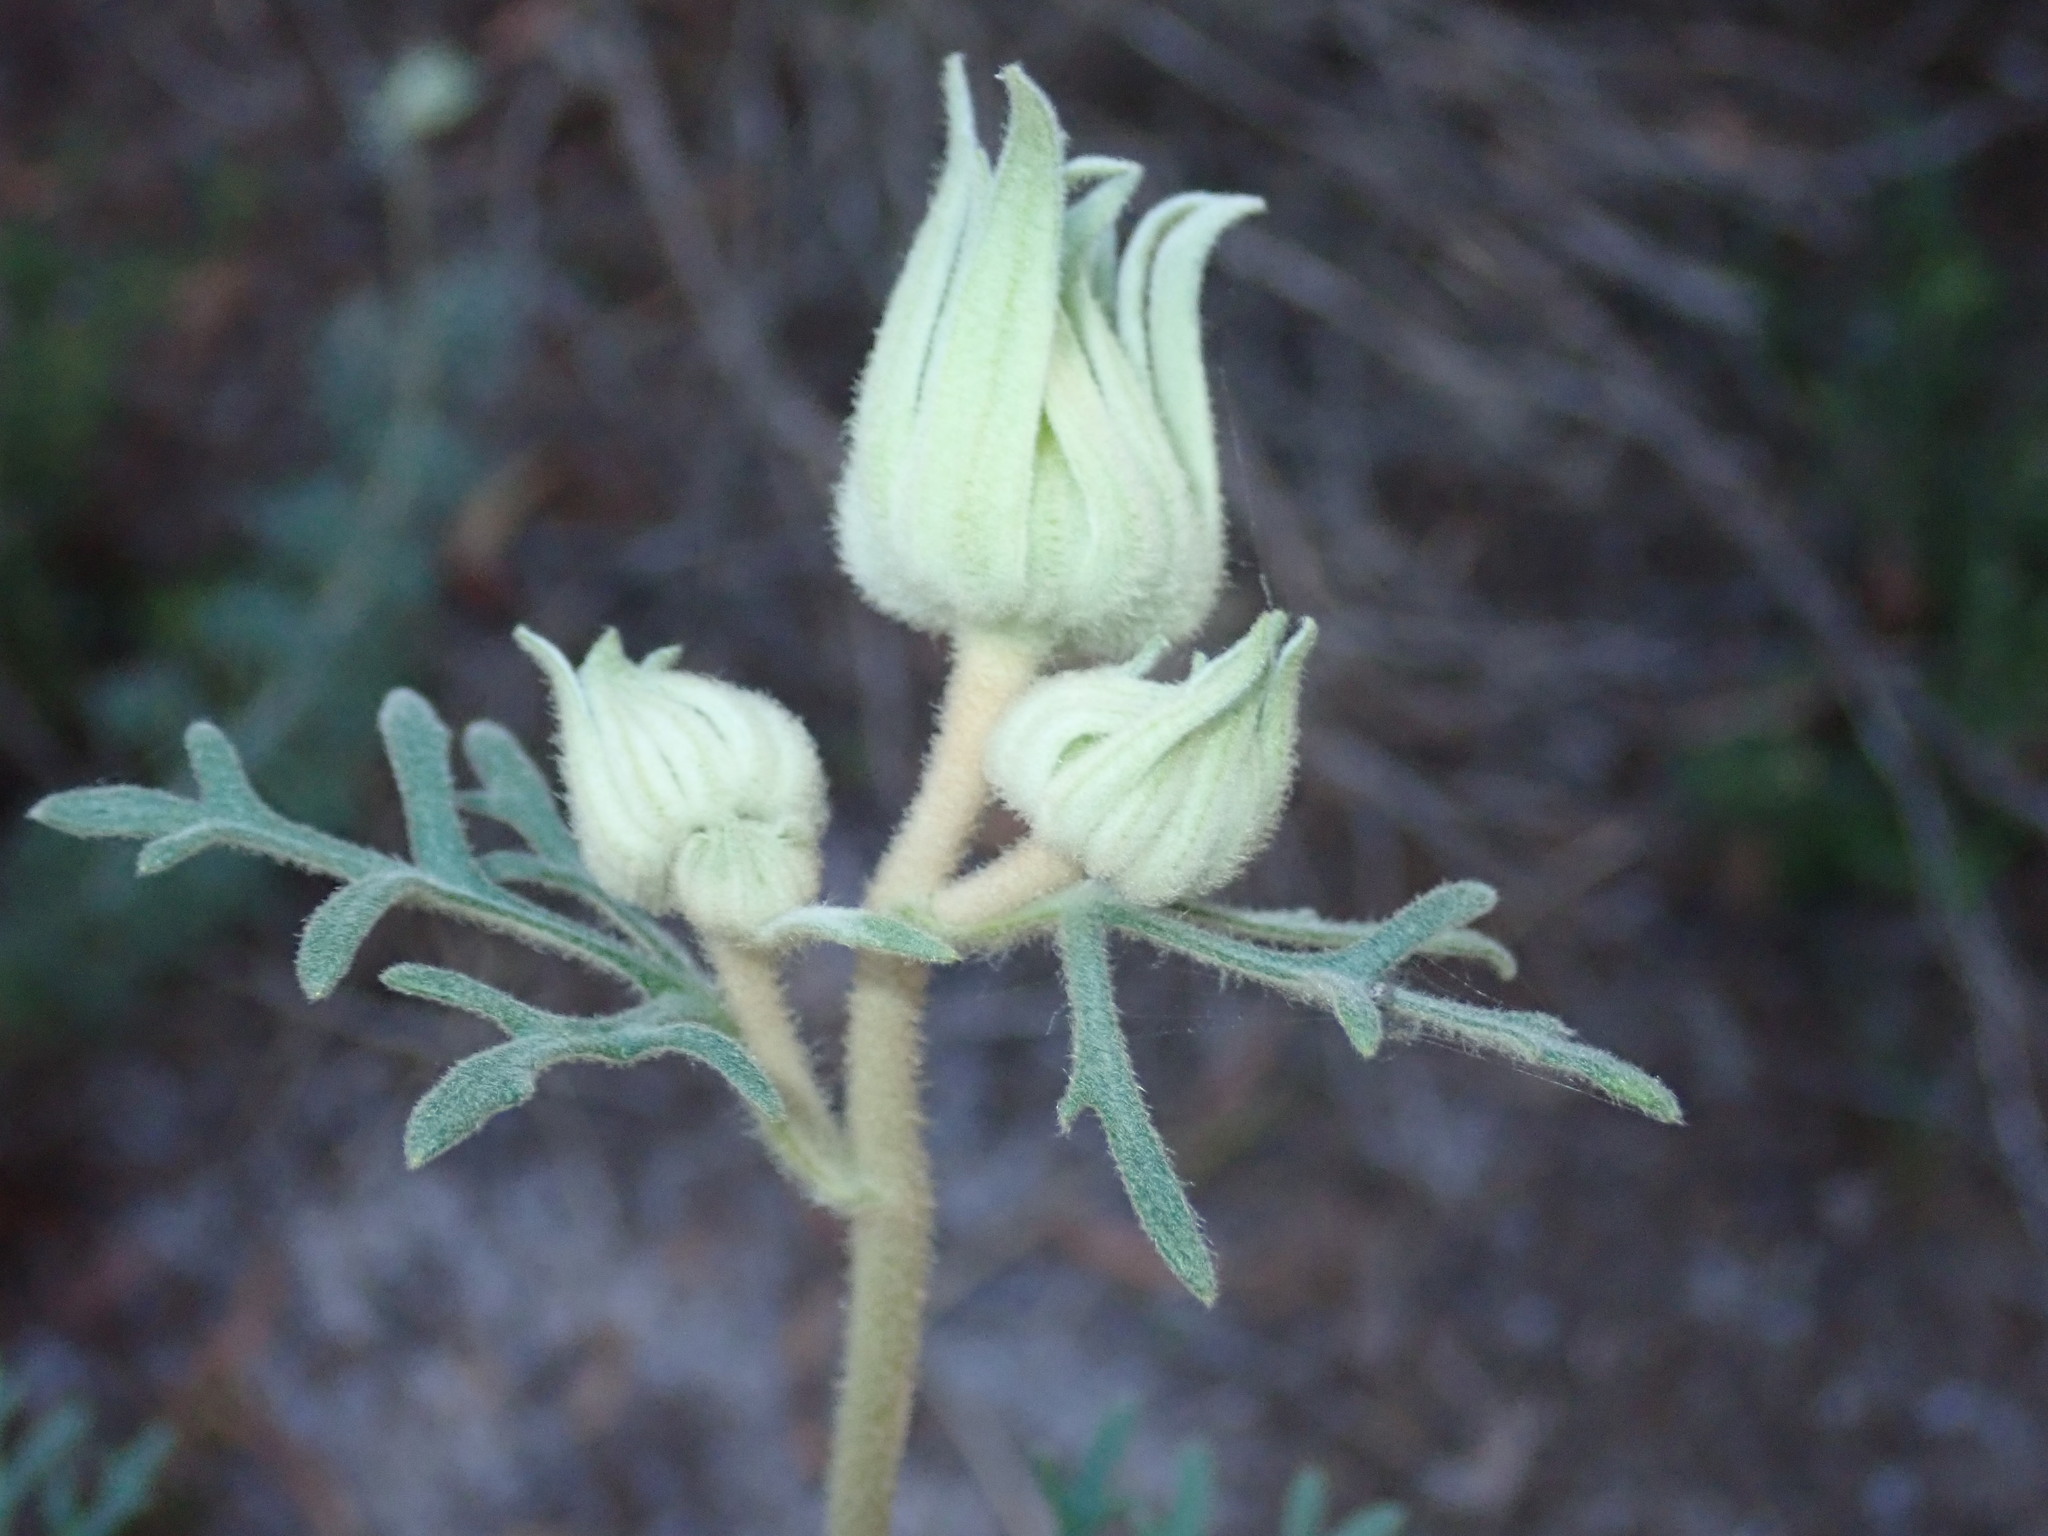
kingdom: Plantae
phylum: Tracheophyta
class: Magnoliopsida
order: Apiales
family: Apiaceae
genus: Actinotus
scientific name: Actinotus helianthi
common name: Flannel-flower
